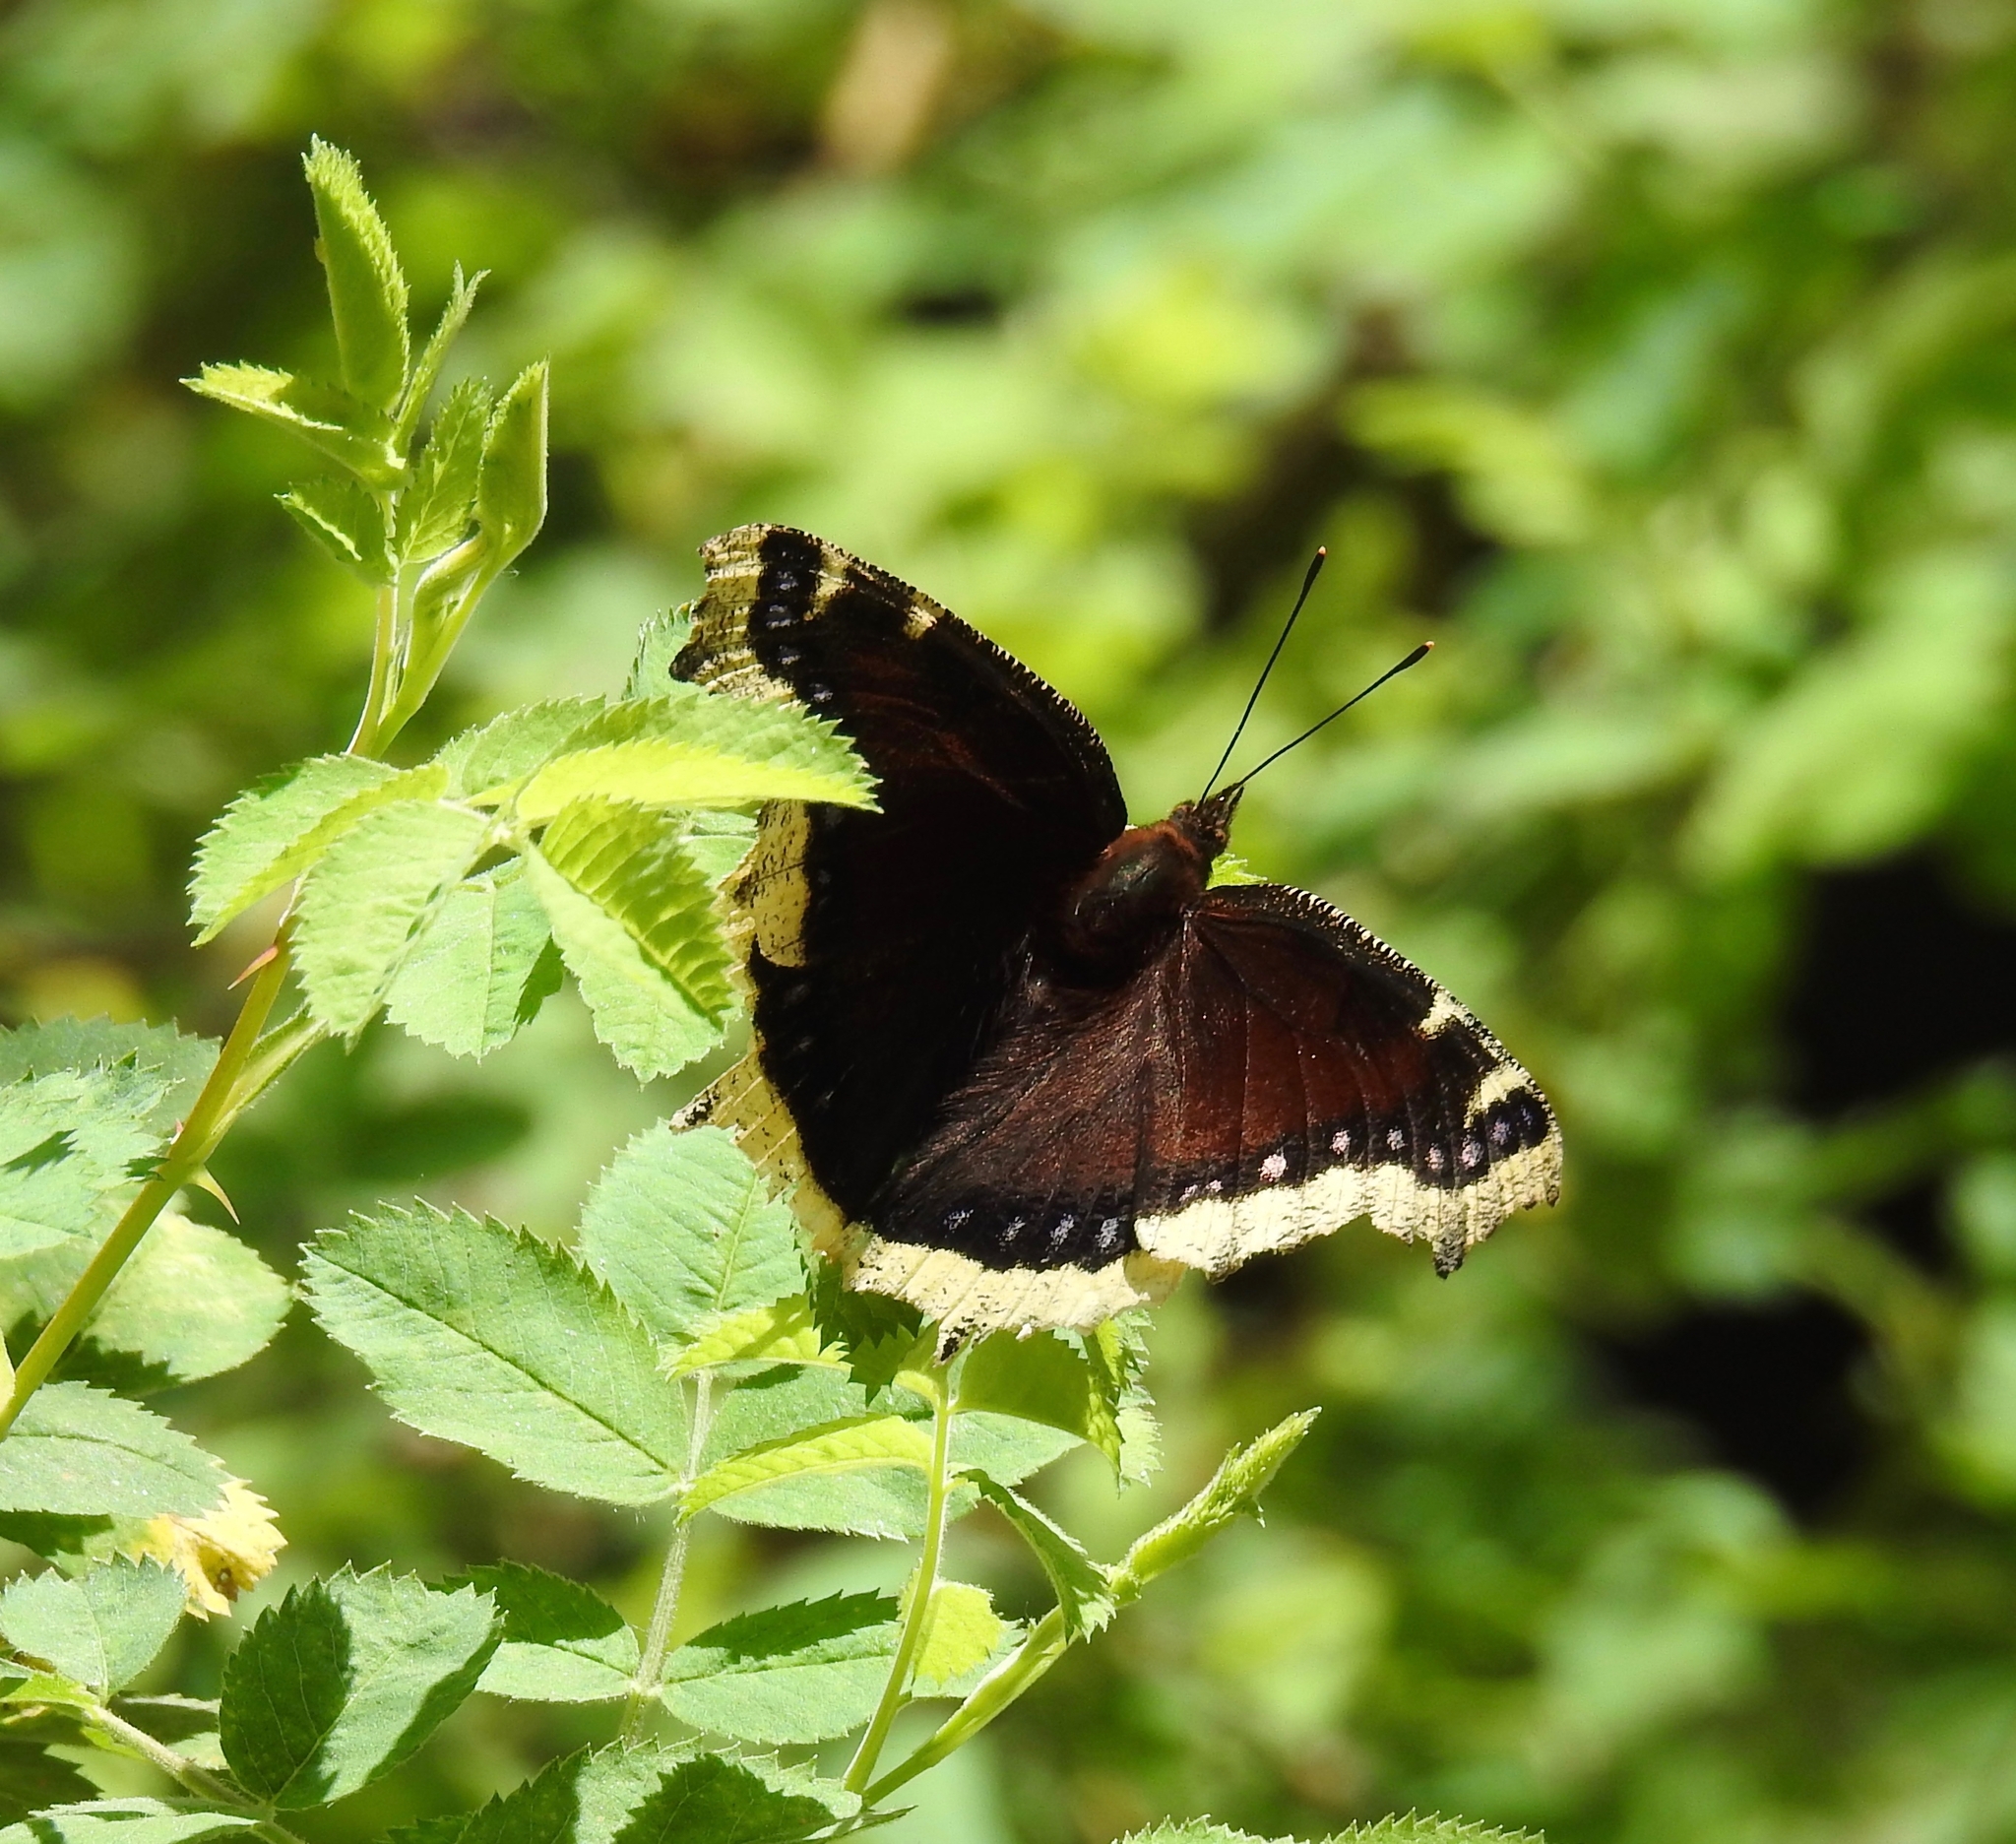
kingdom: Animalia
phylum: Arthropoda
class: Insecta
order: Lepidoptera
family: Nymphalidae
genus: Nymphalis
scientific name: Nymphalis antiopa
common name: Camberwell beauty
